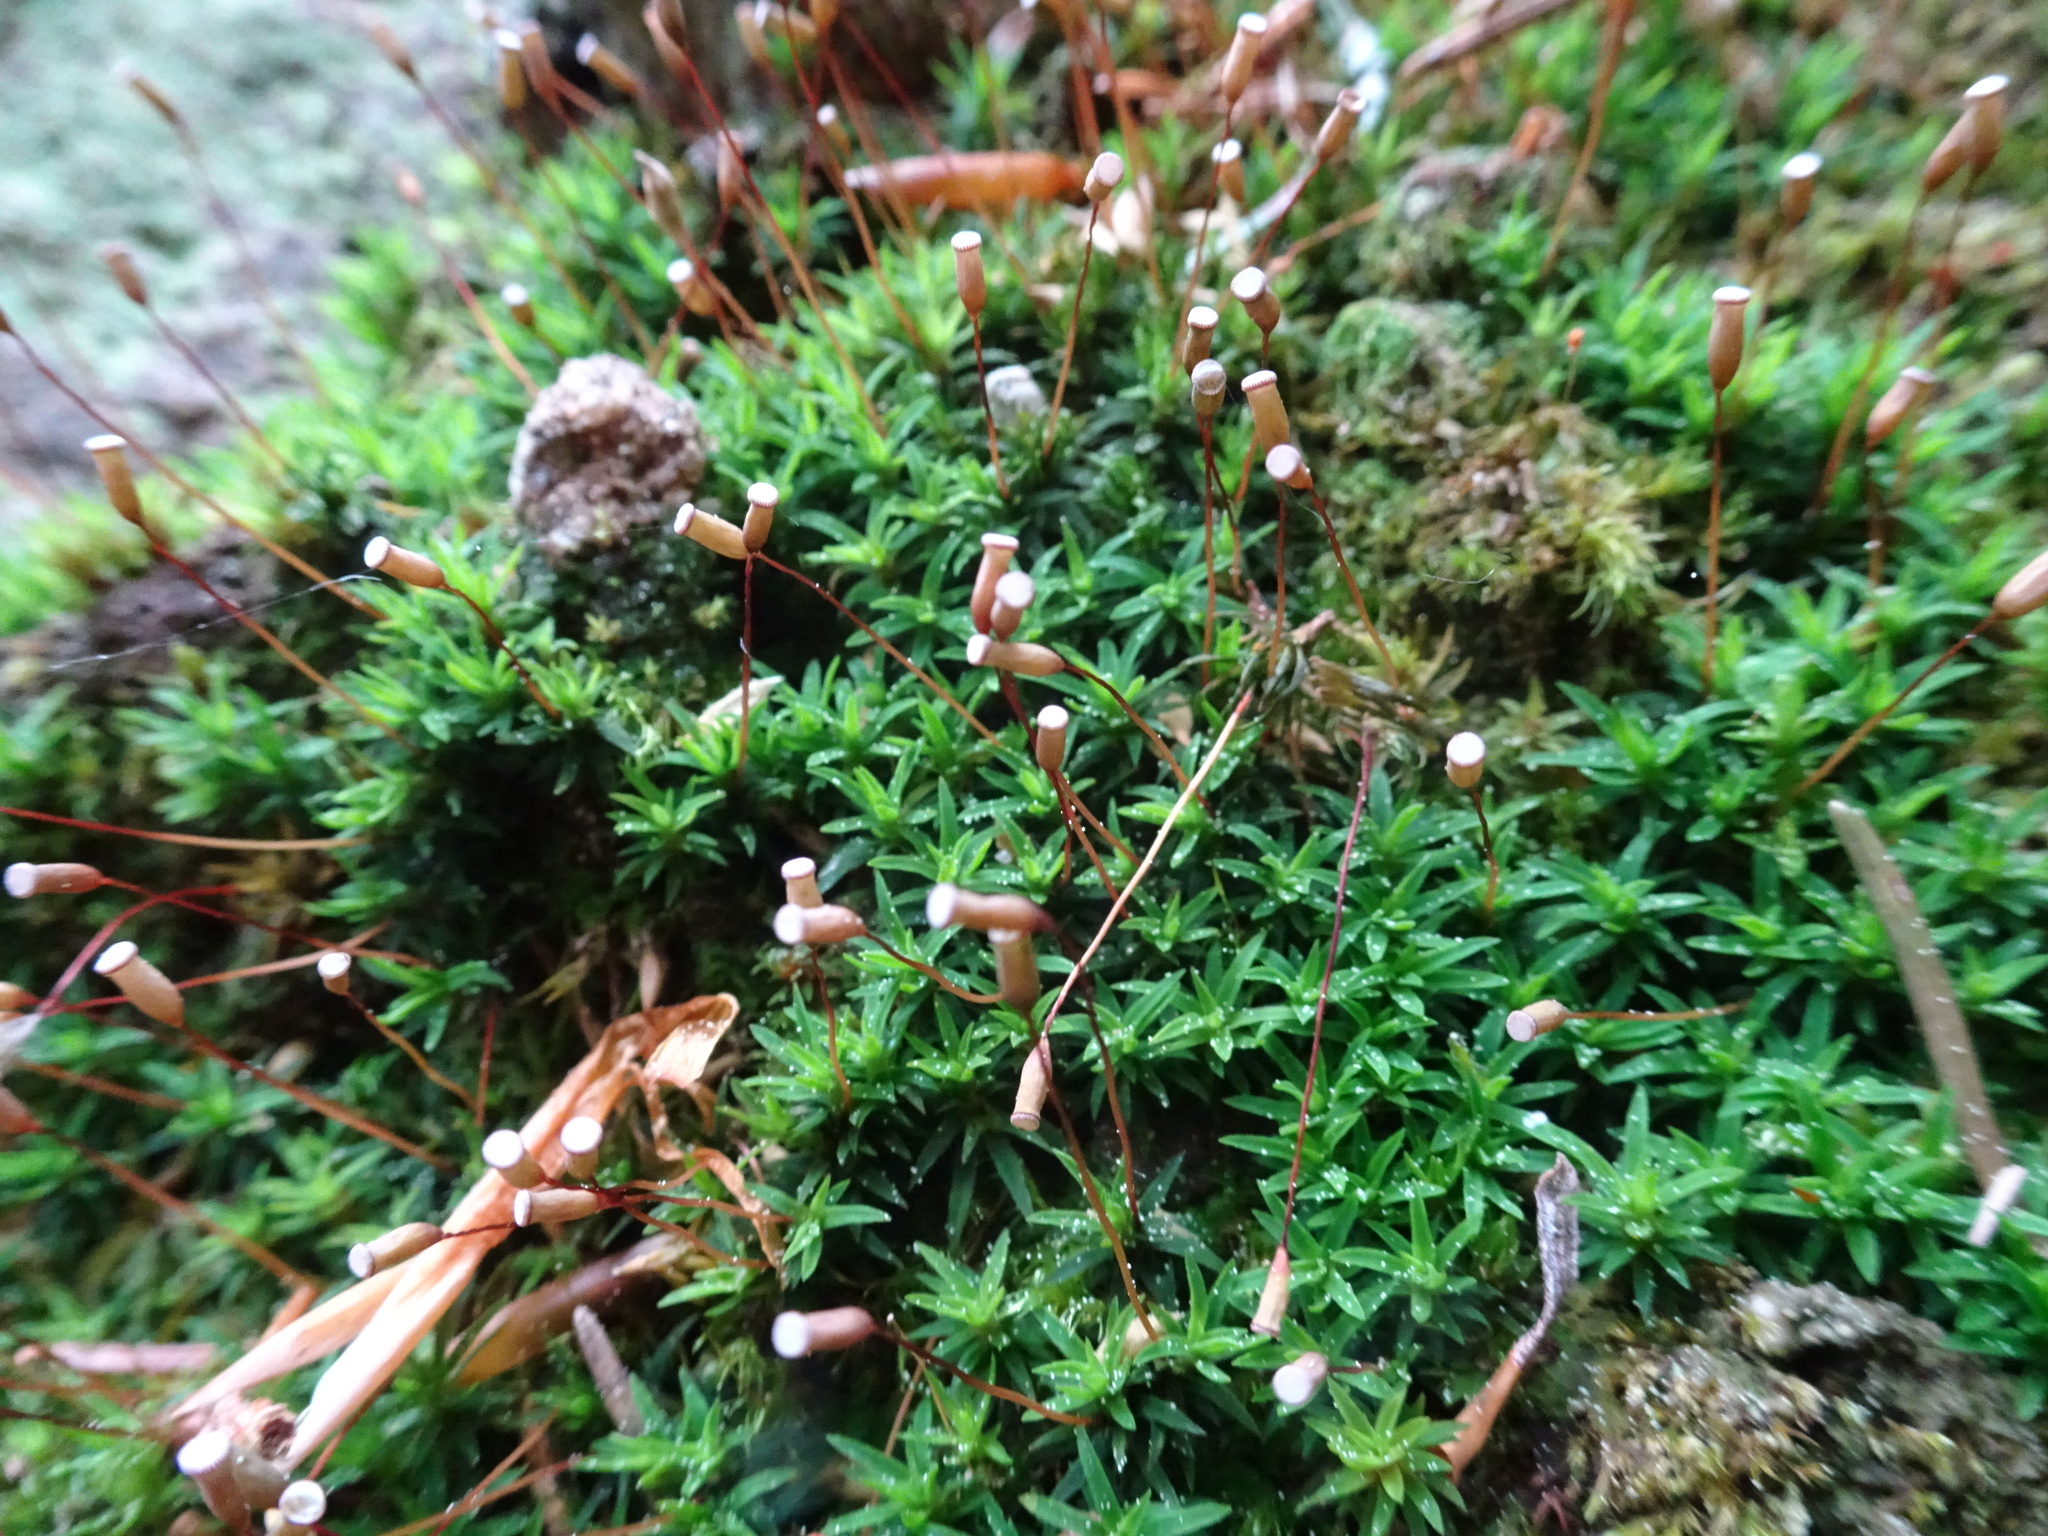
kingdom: Plantae
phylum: Bryophyta
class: Polytrichopsida
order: Polytrichales
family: Polytrichaceae
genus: Pogonatum
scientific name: Pogonatum aloides
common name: Aloe haircap
